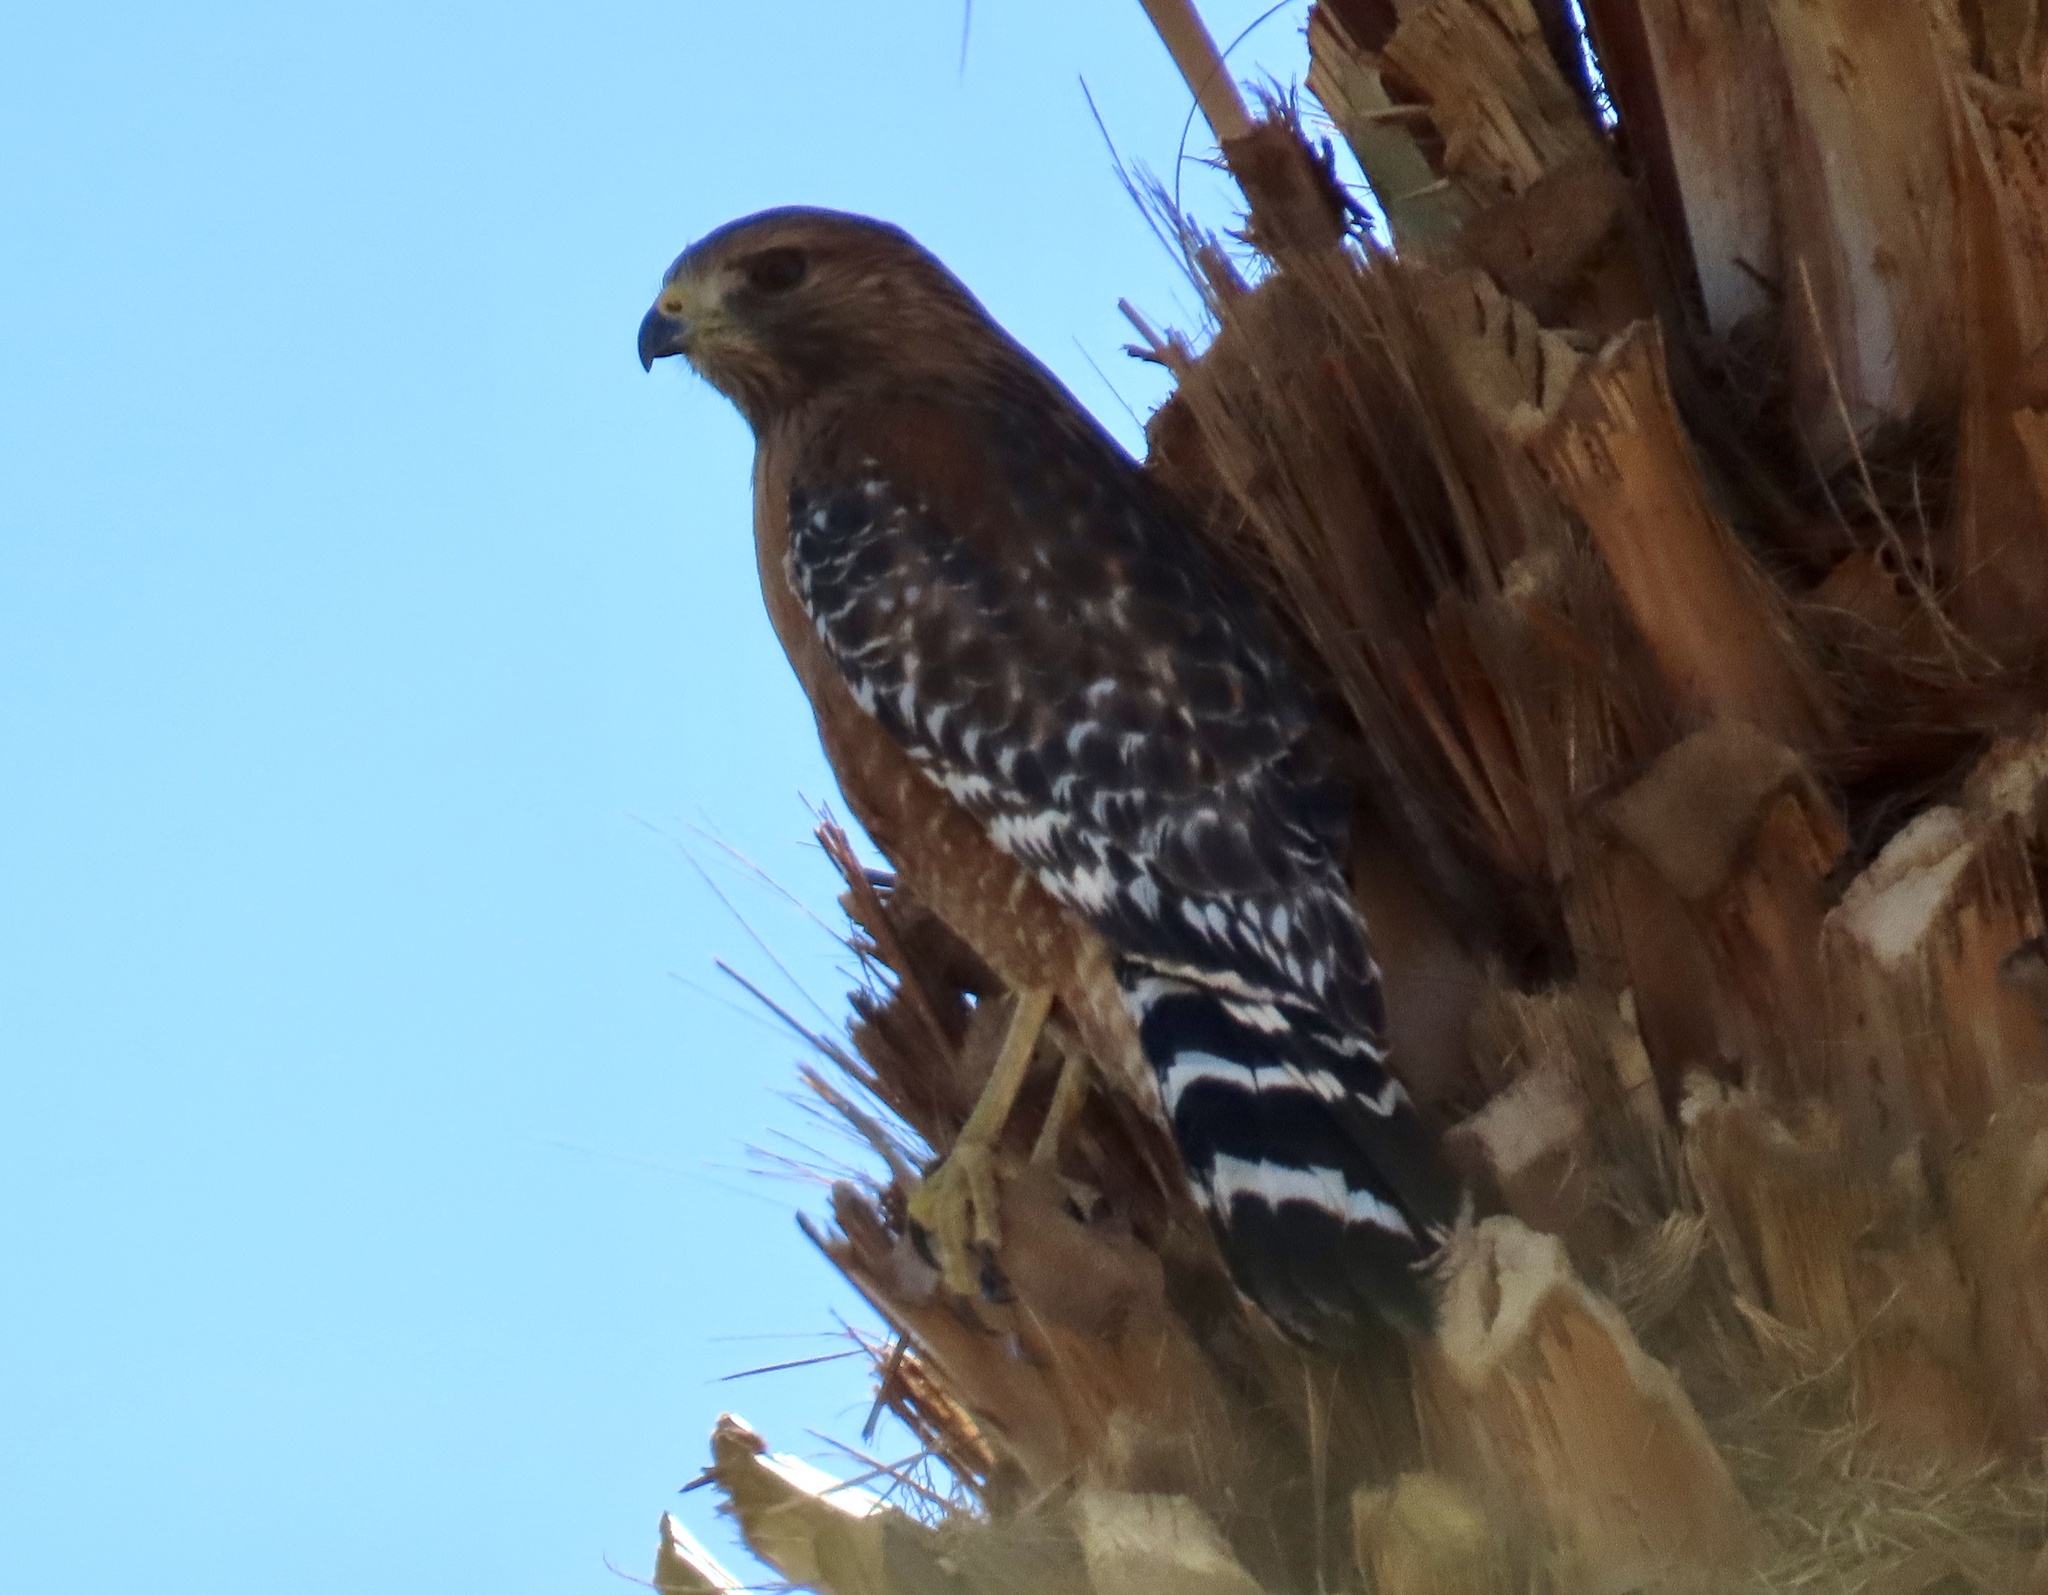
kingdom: Animalia
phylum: Chordata
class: Aves
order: Accipitriformes
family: Accipitridae
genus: Buteo
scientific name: Buteo lineatus
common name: Red-shouldered hawk
